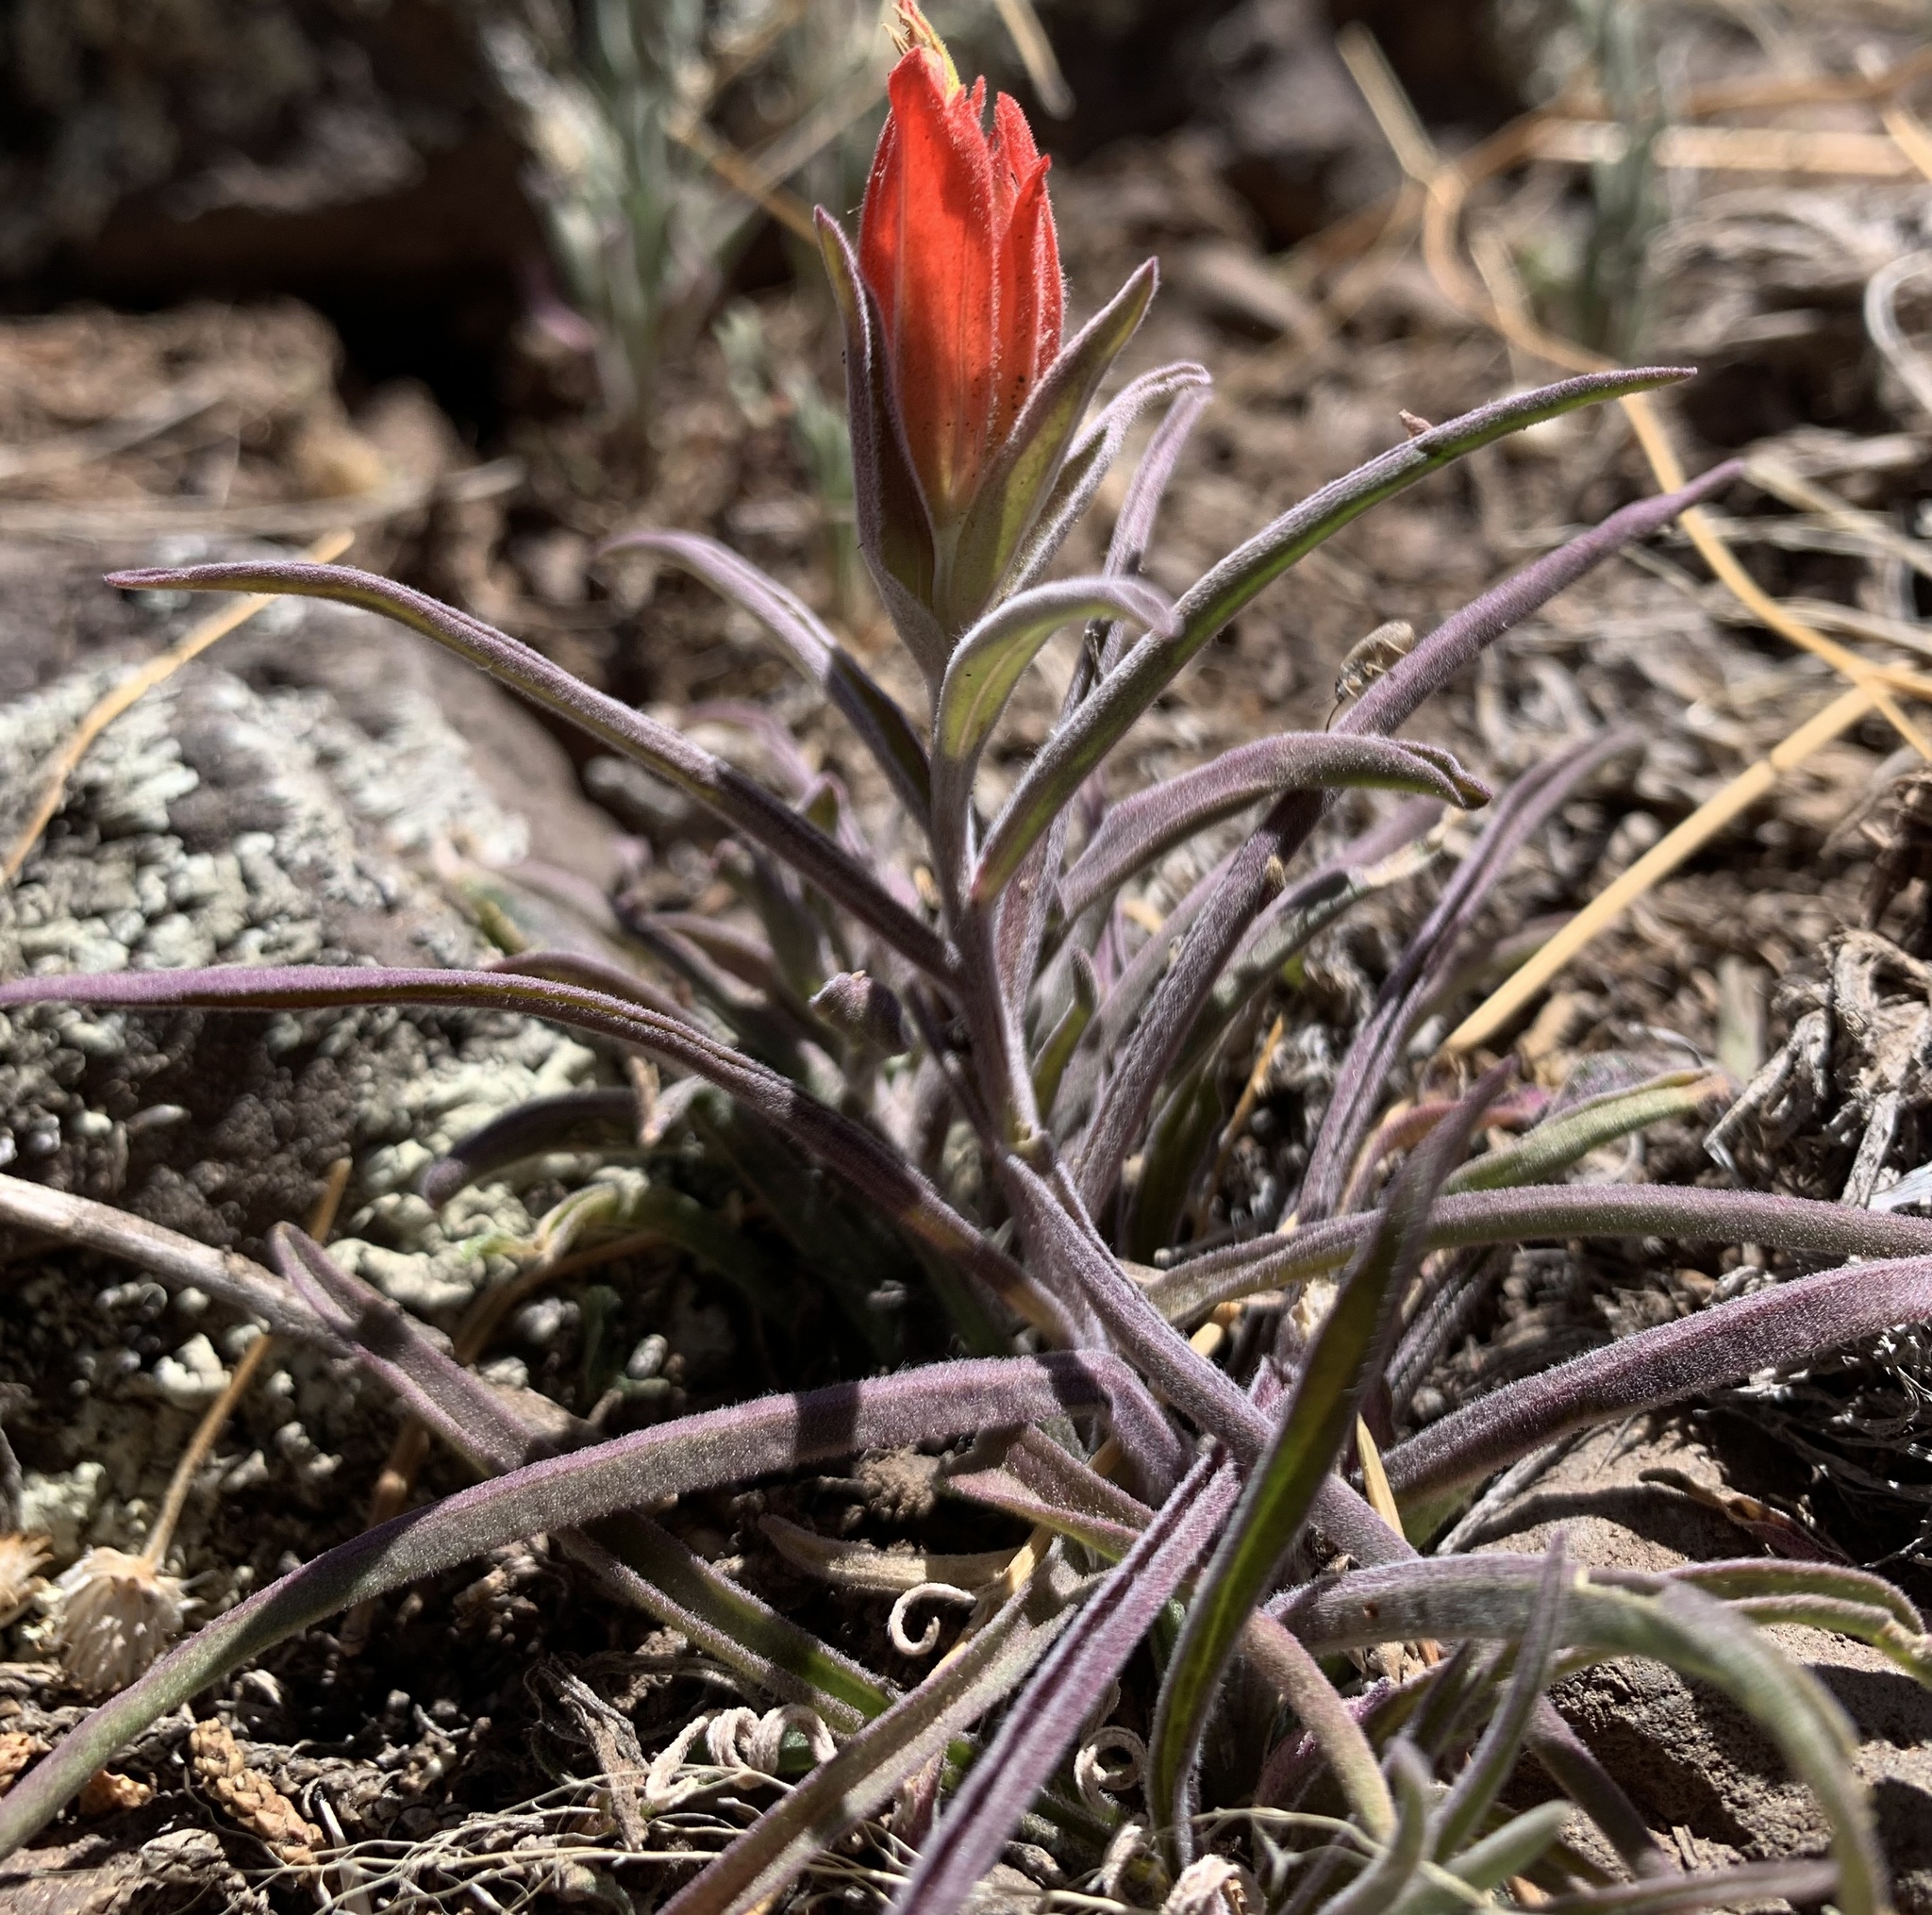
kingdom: Plantae
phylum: Tracheophyta
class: Magnoliopsida
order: Lamiales
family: Orobanchaceae
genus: Castilleja
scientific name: Castilleja integra
